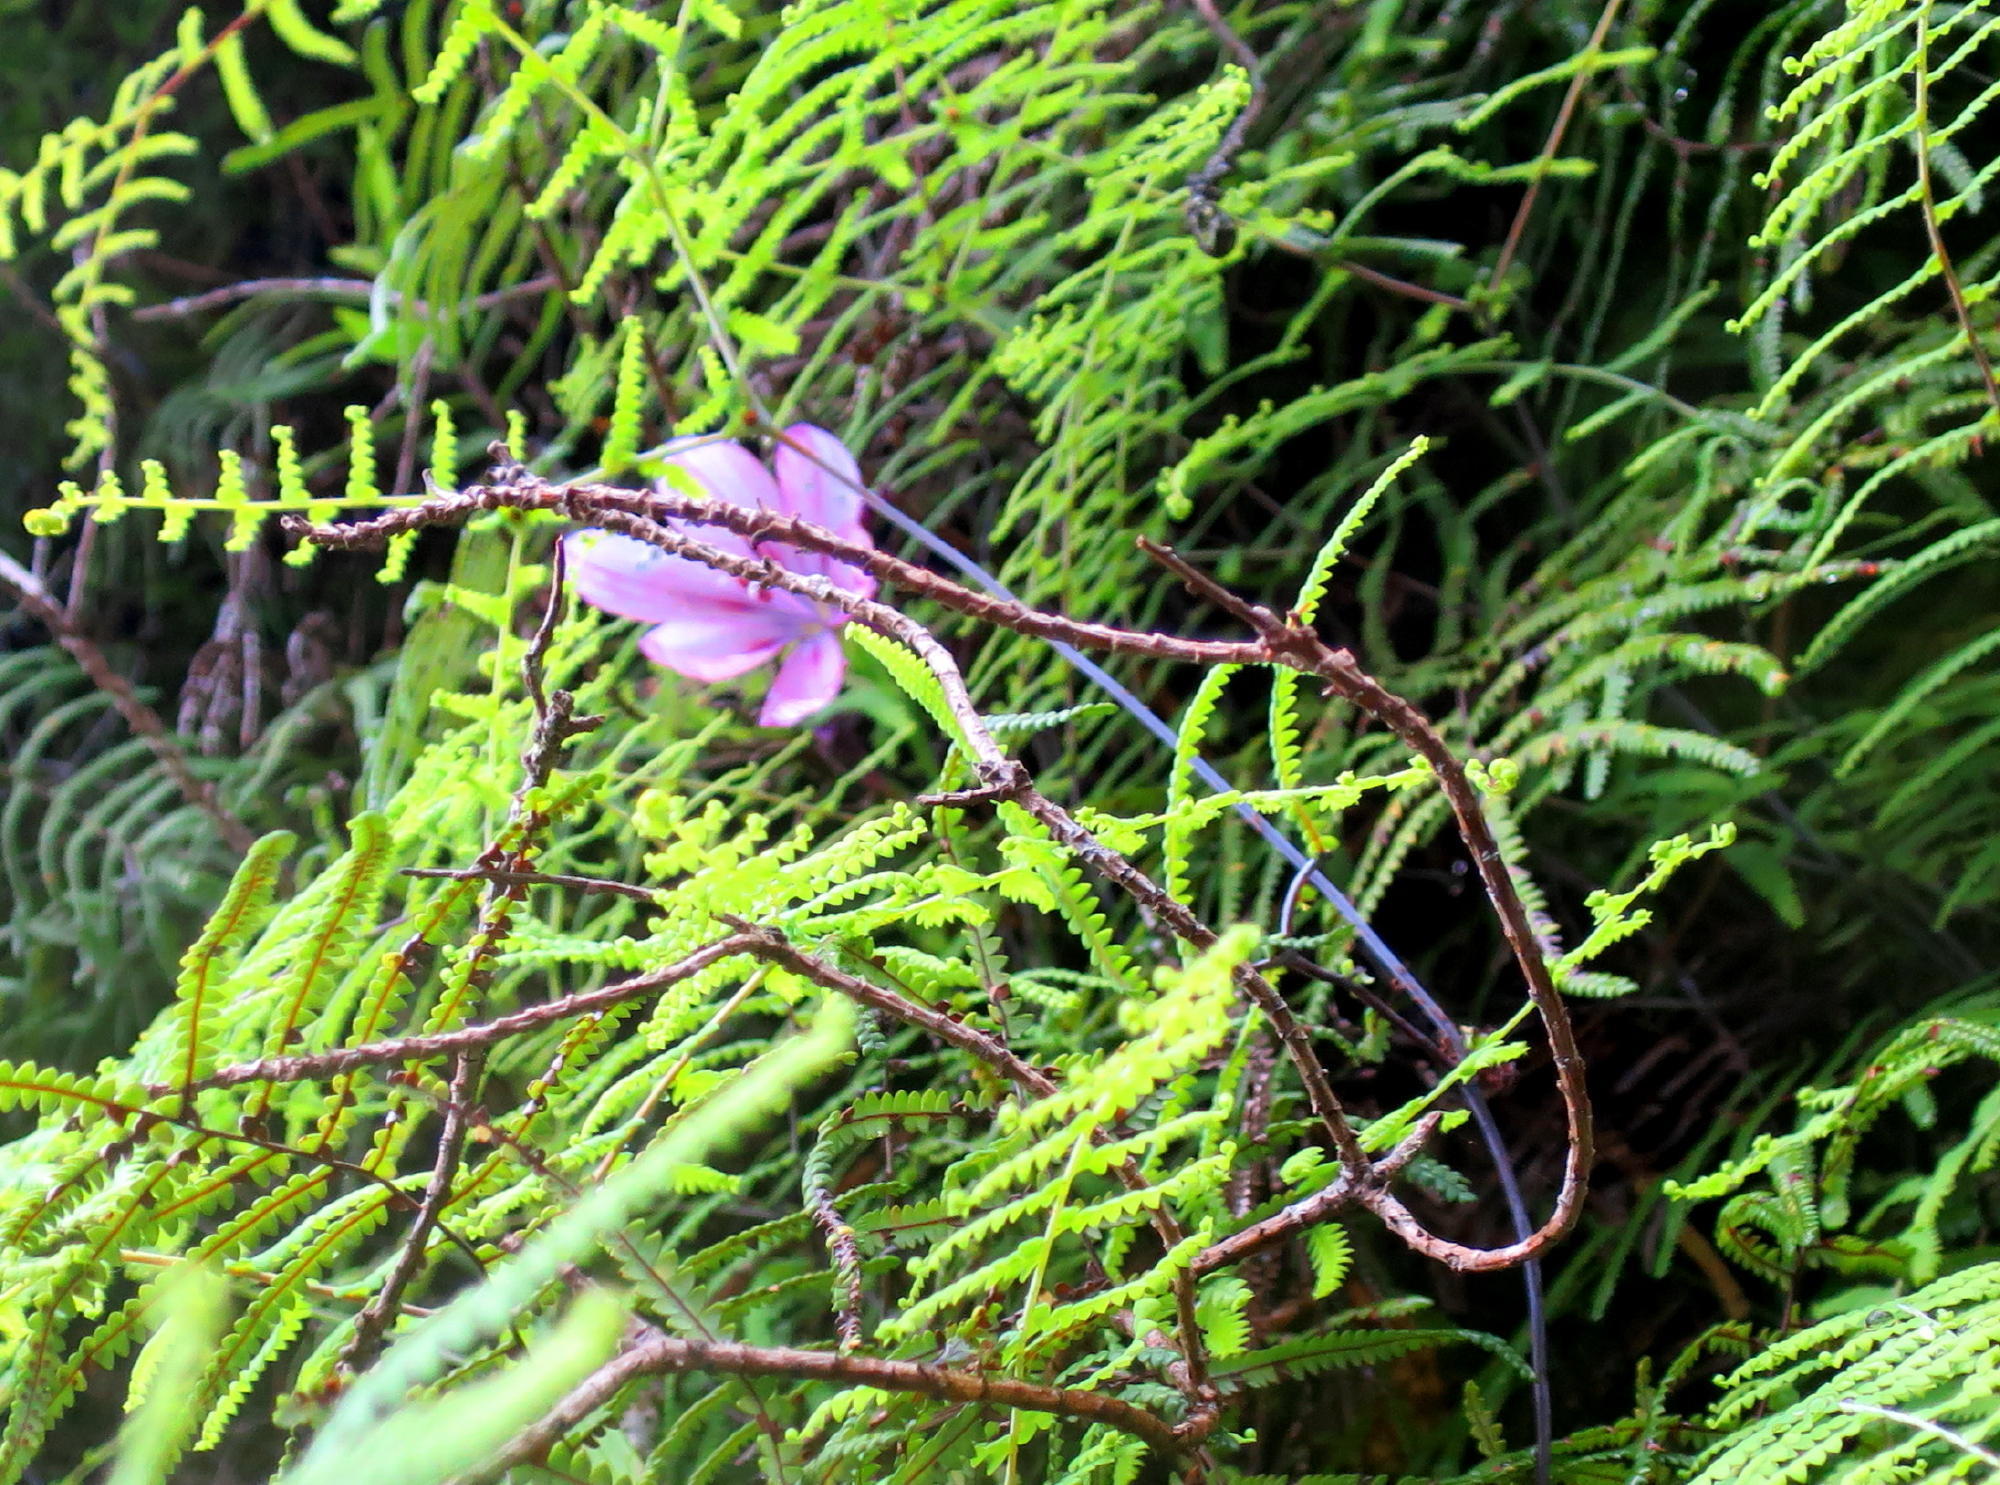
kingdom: Plantae
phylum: Tracheophyta
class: Liliopsida
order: Asparagales
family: Iridaceae
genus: Geissorhiza
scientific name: Geissorhiza outeniquensis
